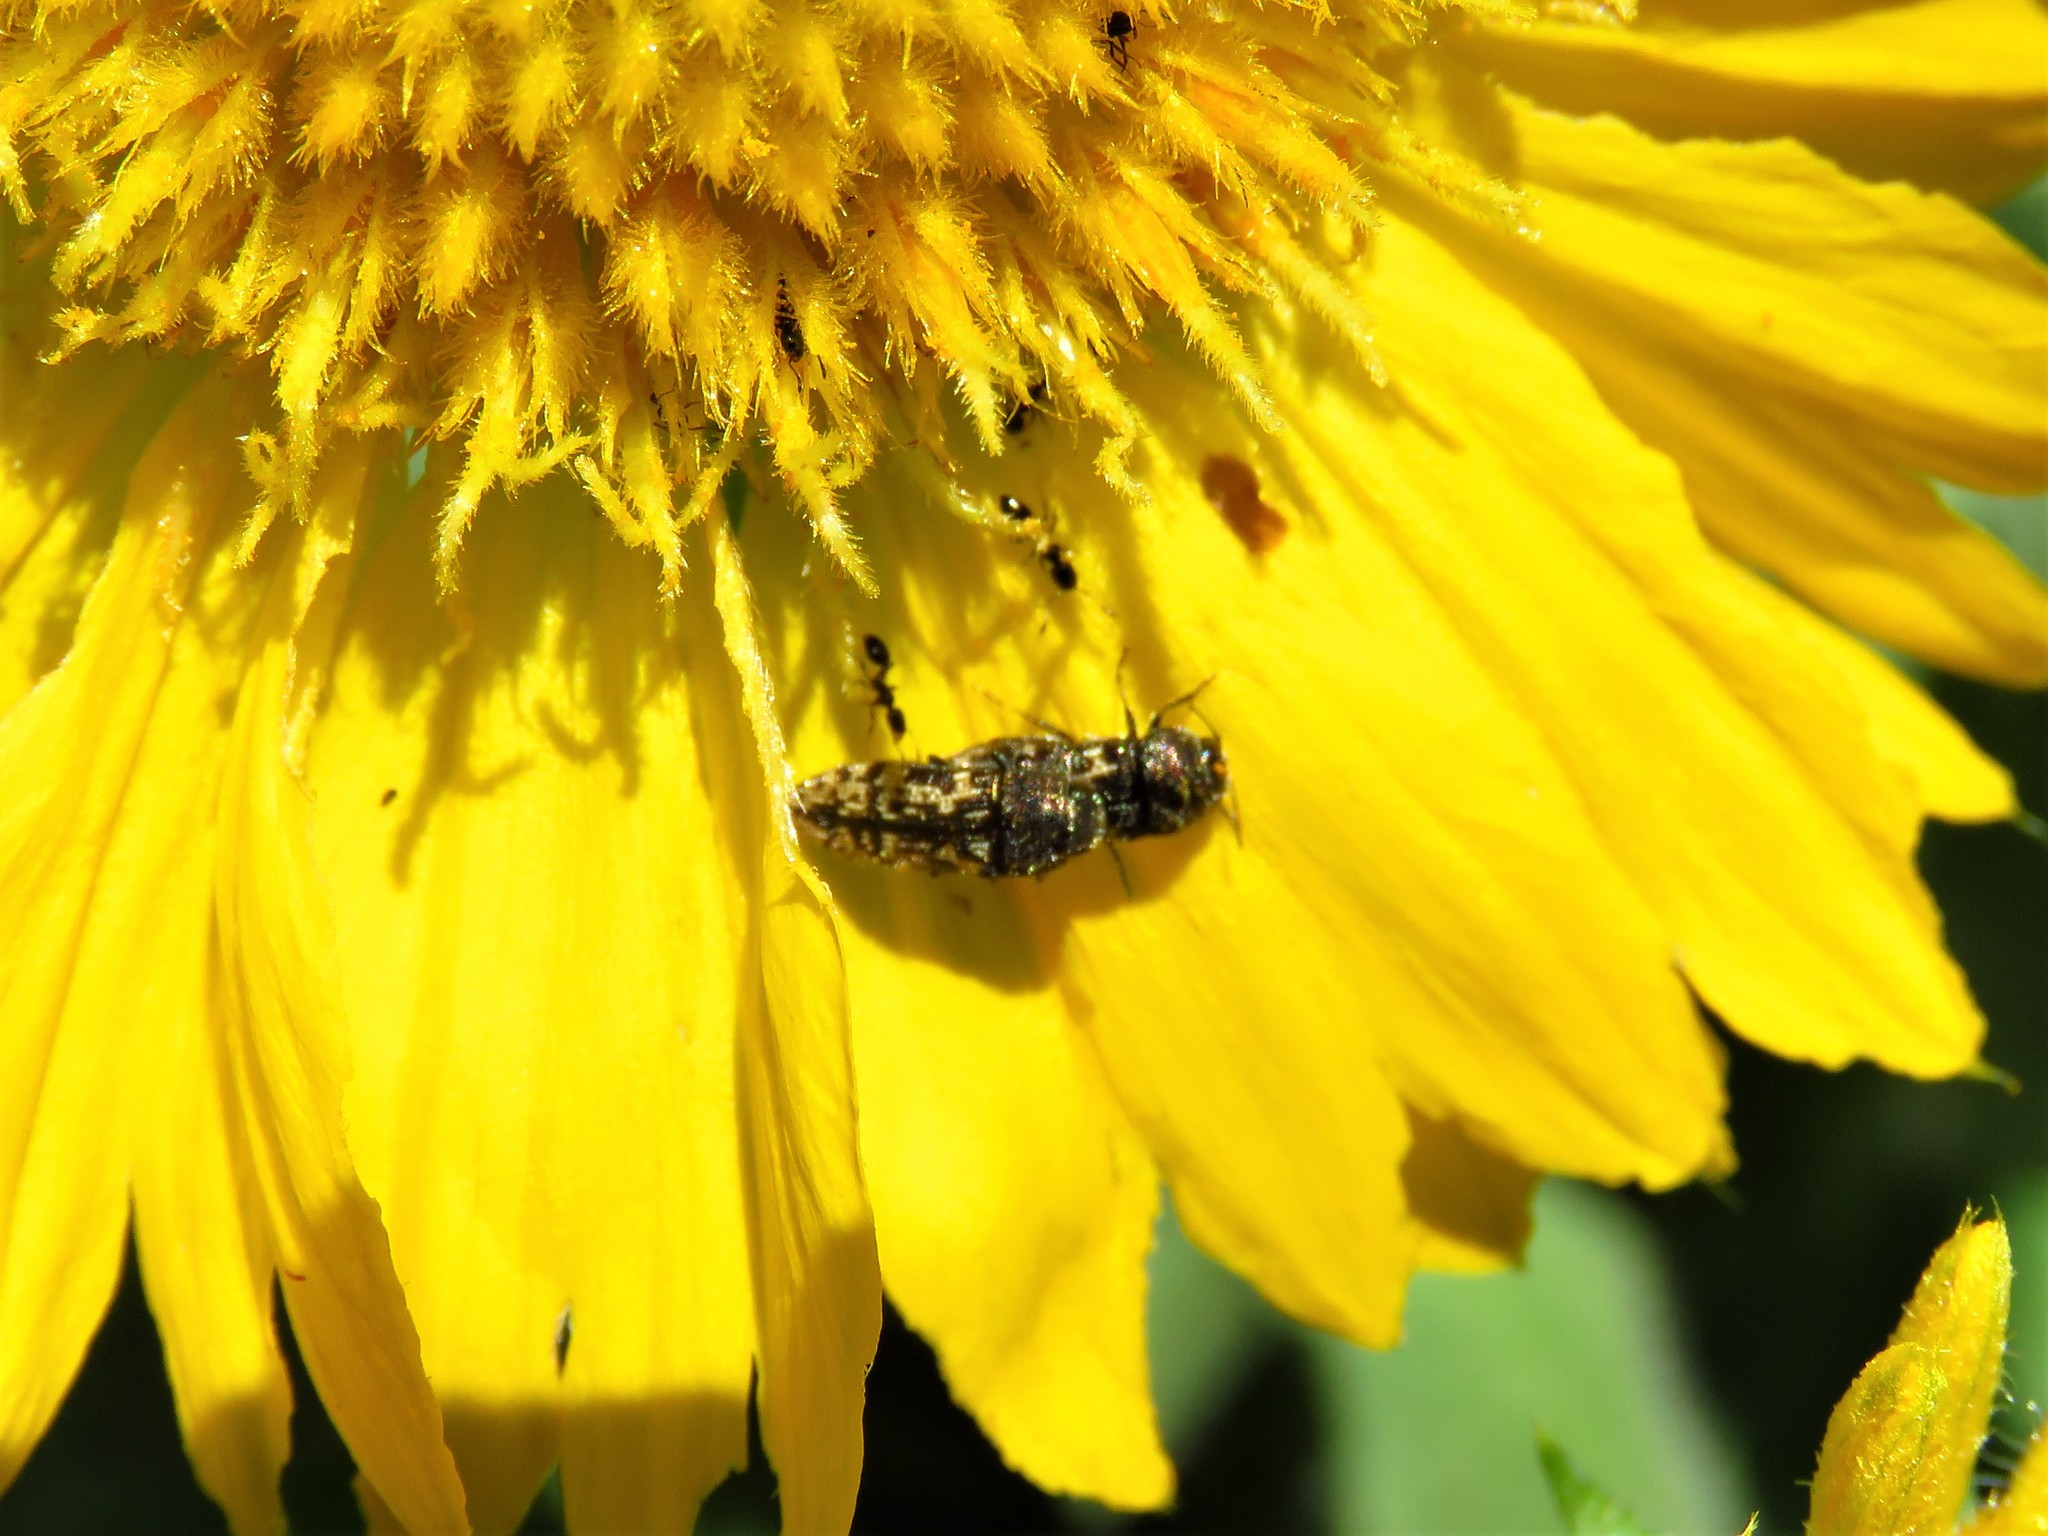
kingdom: Animalia
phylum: Arthropoda
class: Insecta
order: Coleoptera
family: Buprestidae
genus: Acmaeodera
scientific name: Acmaeodera neglecta
